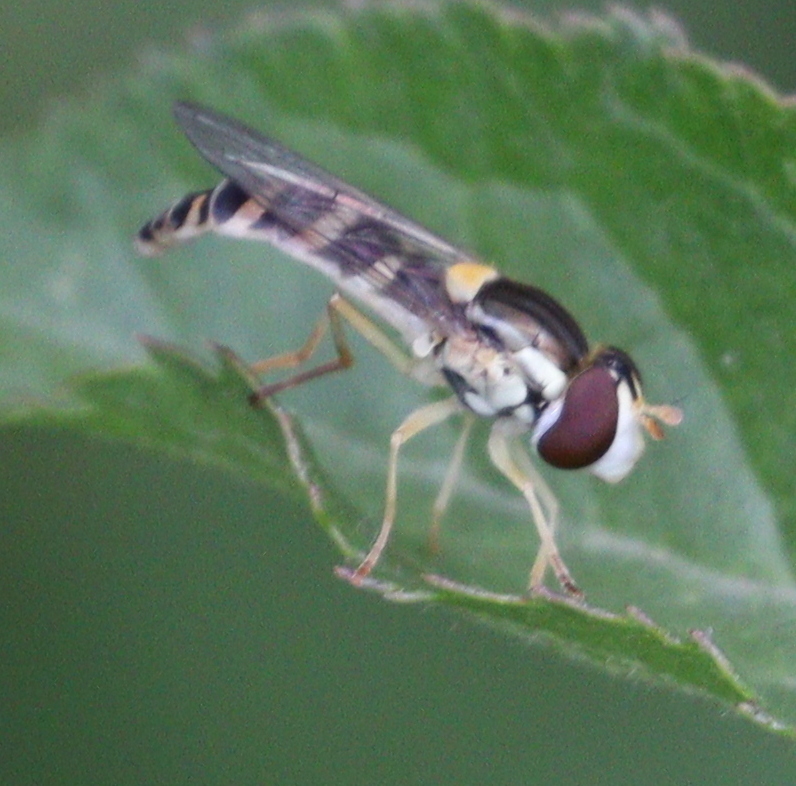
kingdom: Animalia
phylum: Arthropoda
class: Insecta
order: Diptera
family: Syrphidae
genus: Sphaerophoria
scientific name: Sphaerophoria
